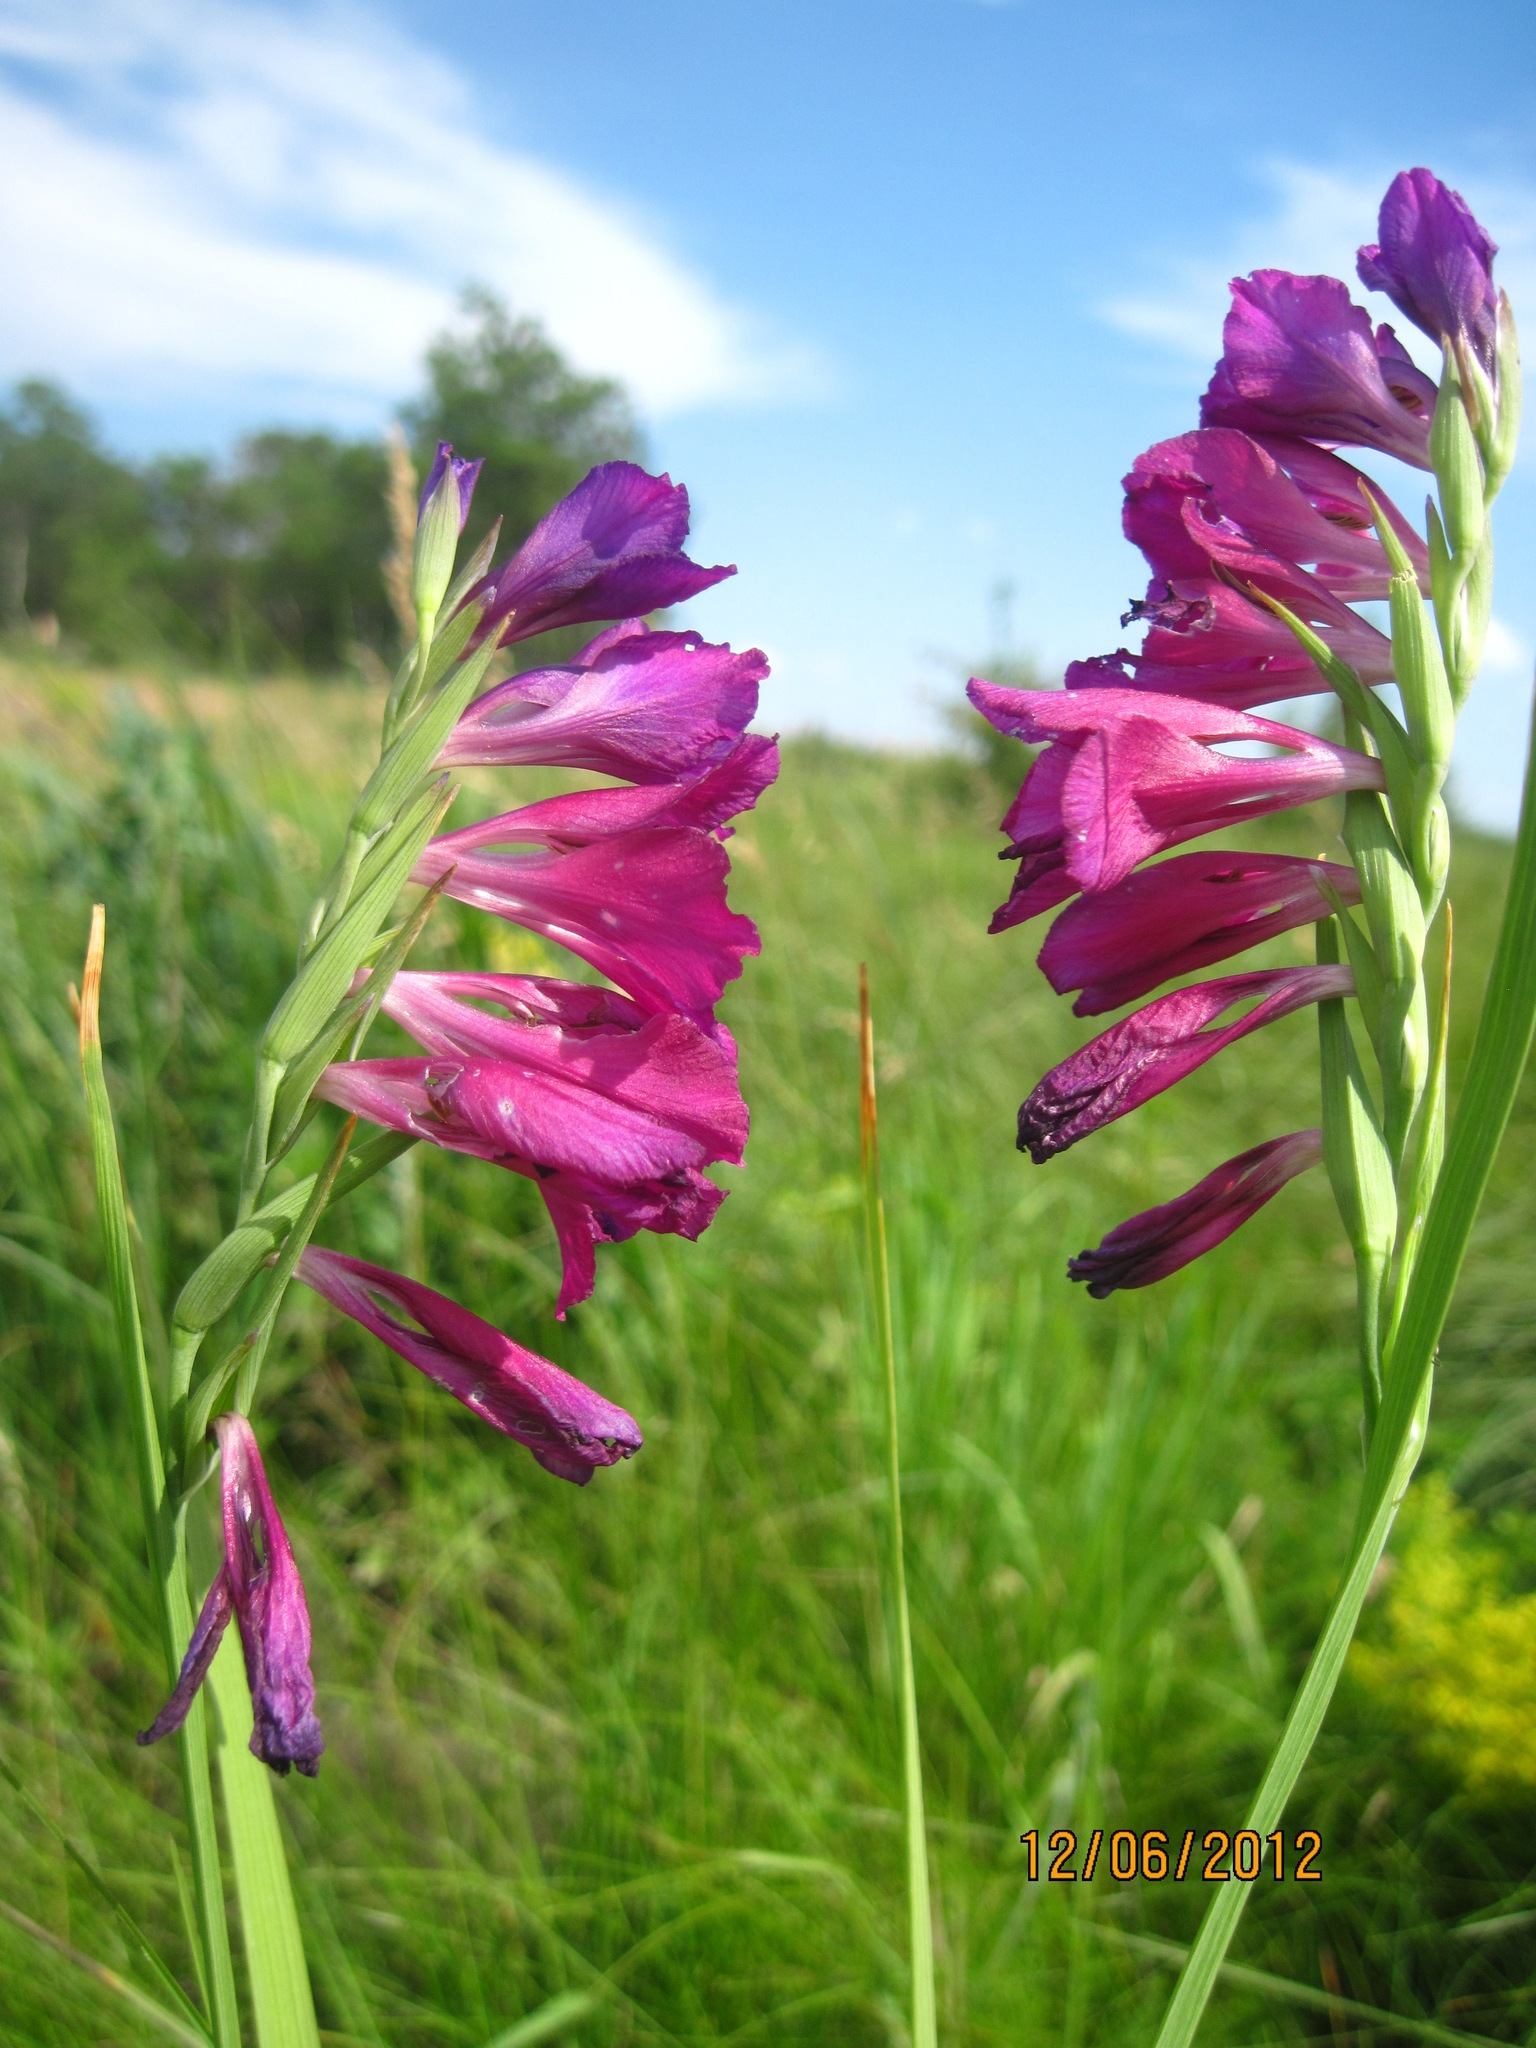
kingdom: Plantae
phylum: Tracheophyta
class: Liliopsida
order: Asparagales
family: Iridaceae
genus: Gladiolus
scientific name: Gladiolus tenuis
